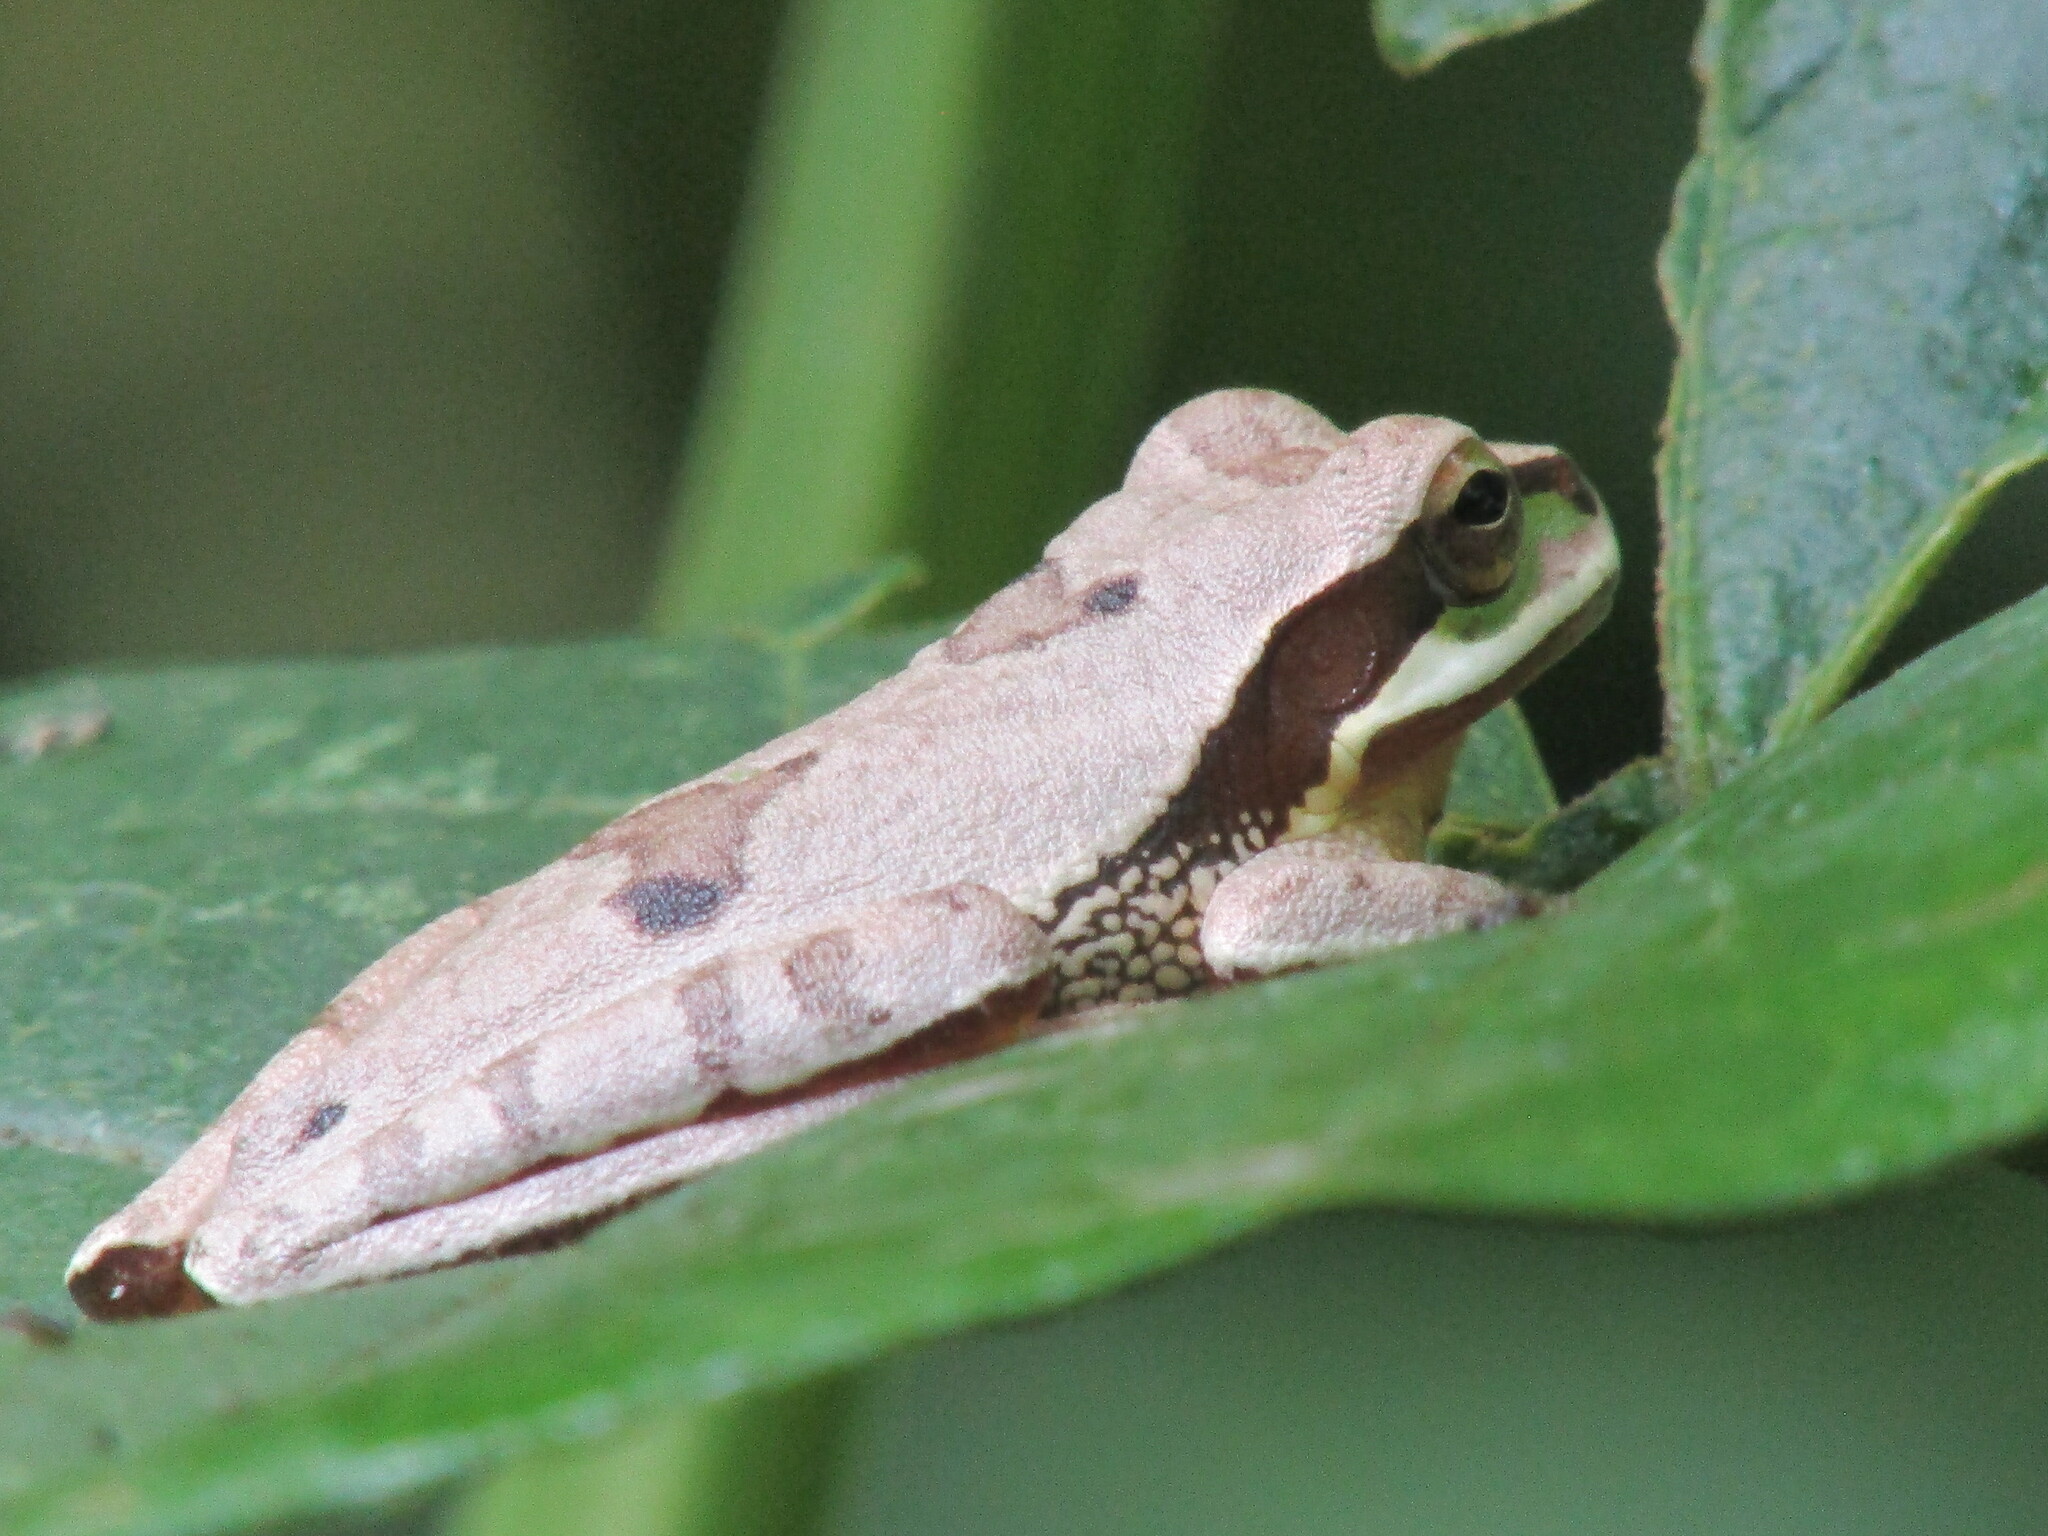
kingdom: Animalia
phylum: Chordata
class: Amphibia
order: Anura
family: Hylidae
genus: Smilisca
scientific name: Smilisca phaeota
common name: Central american smilisca
